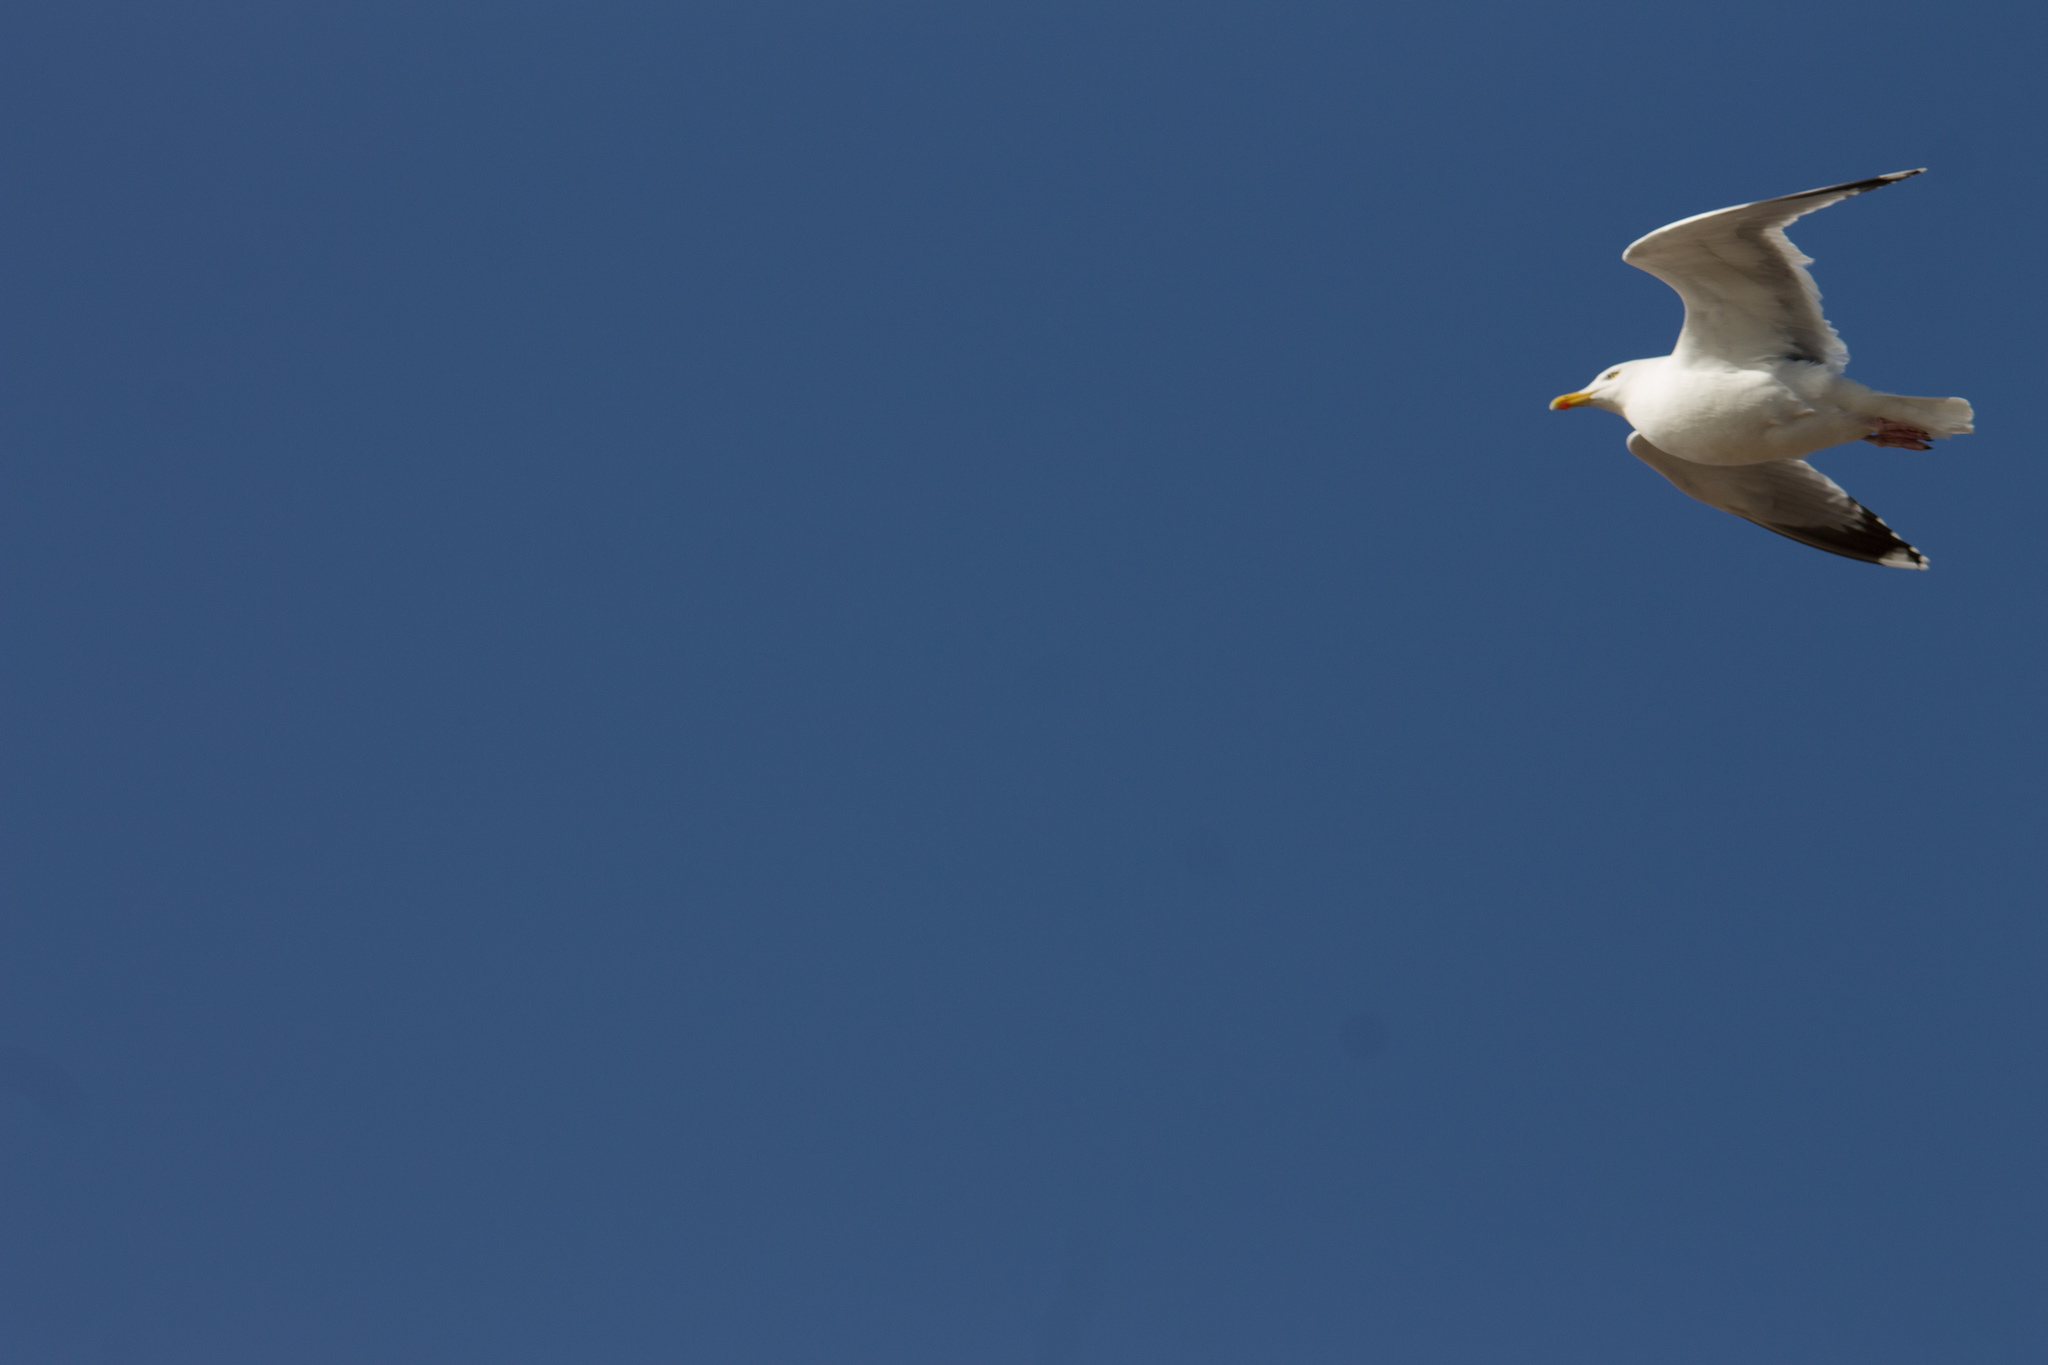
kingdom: Animalia
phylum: Chordata
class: Aves
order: Charadriiformes
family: Laridae
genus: Larus
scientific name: Larus argentatus
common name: Herring gull
